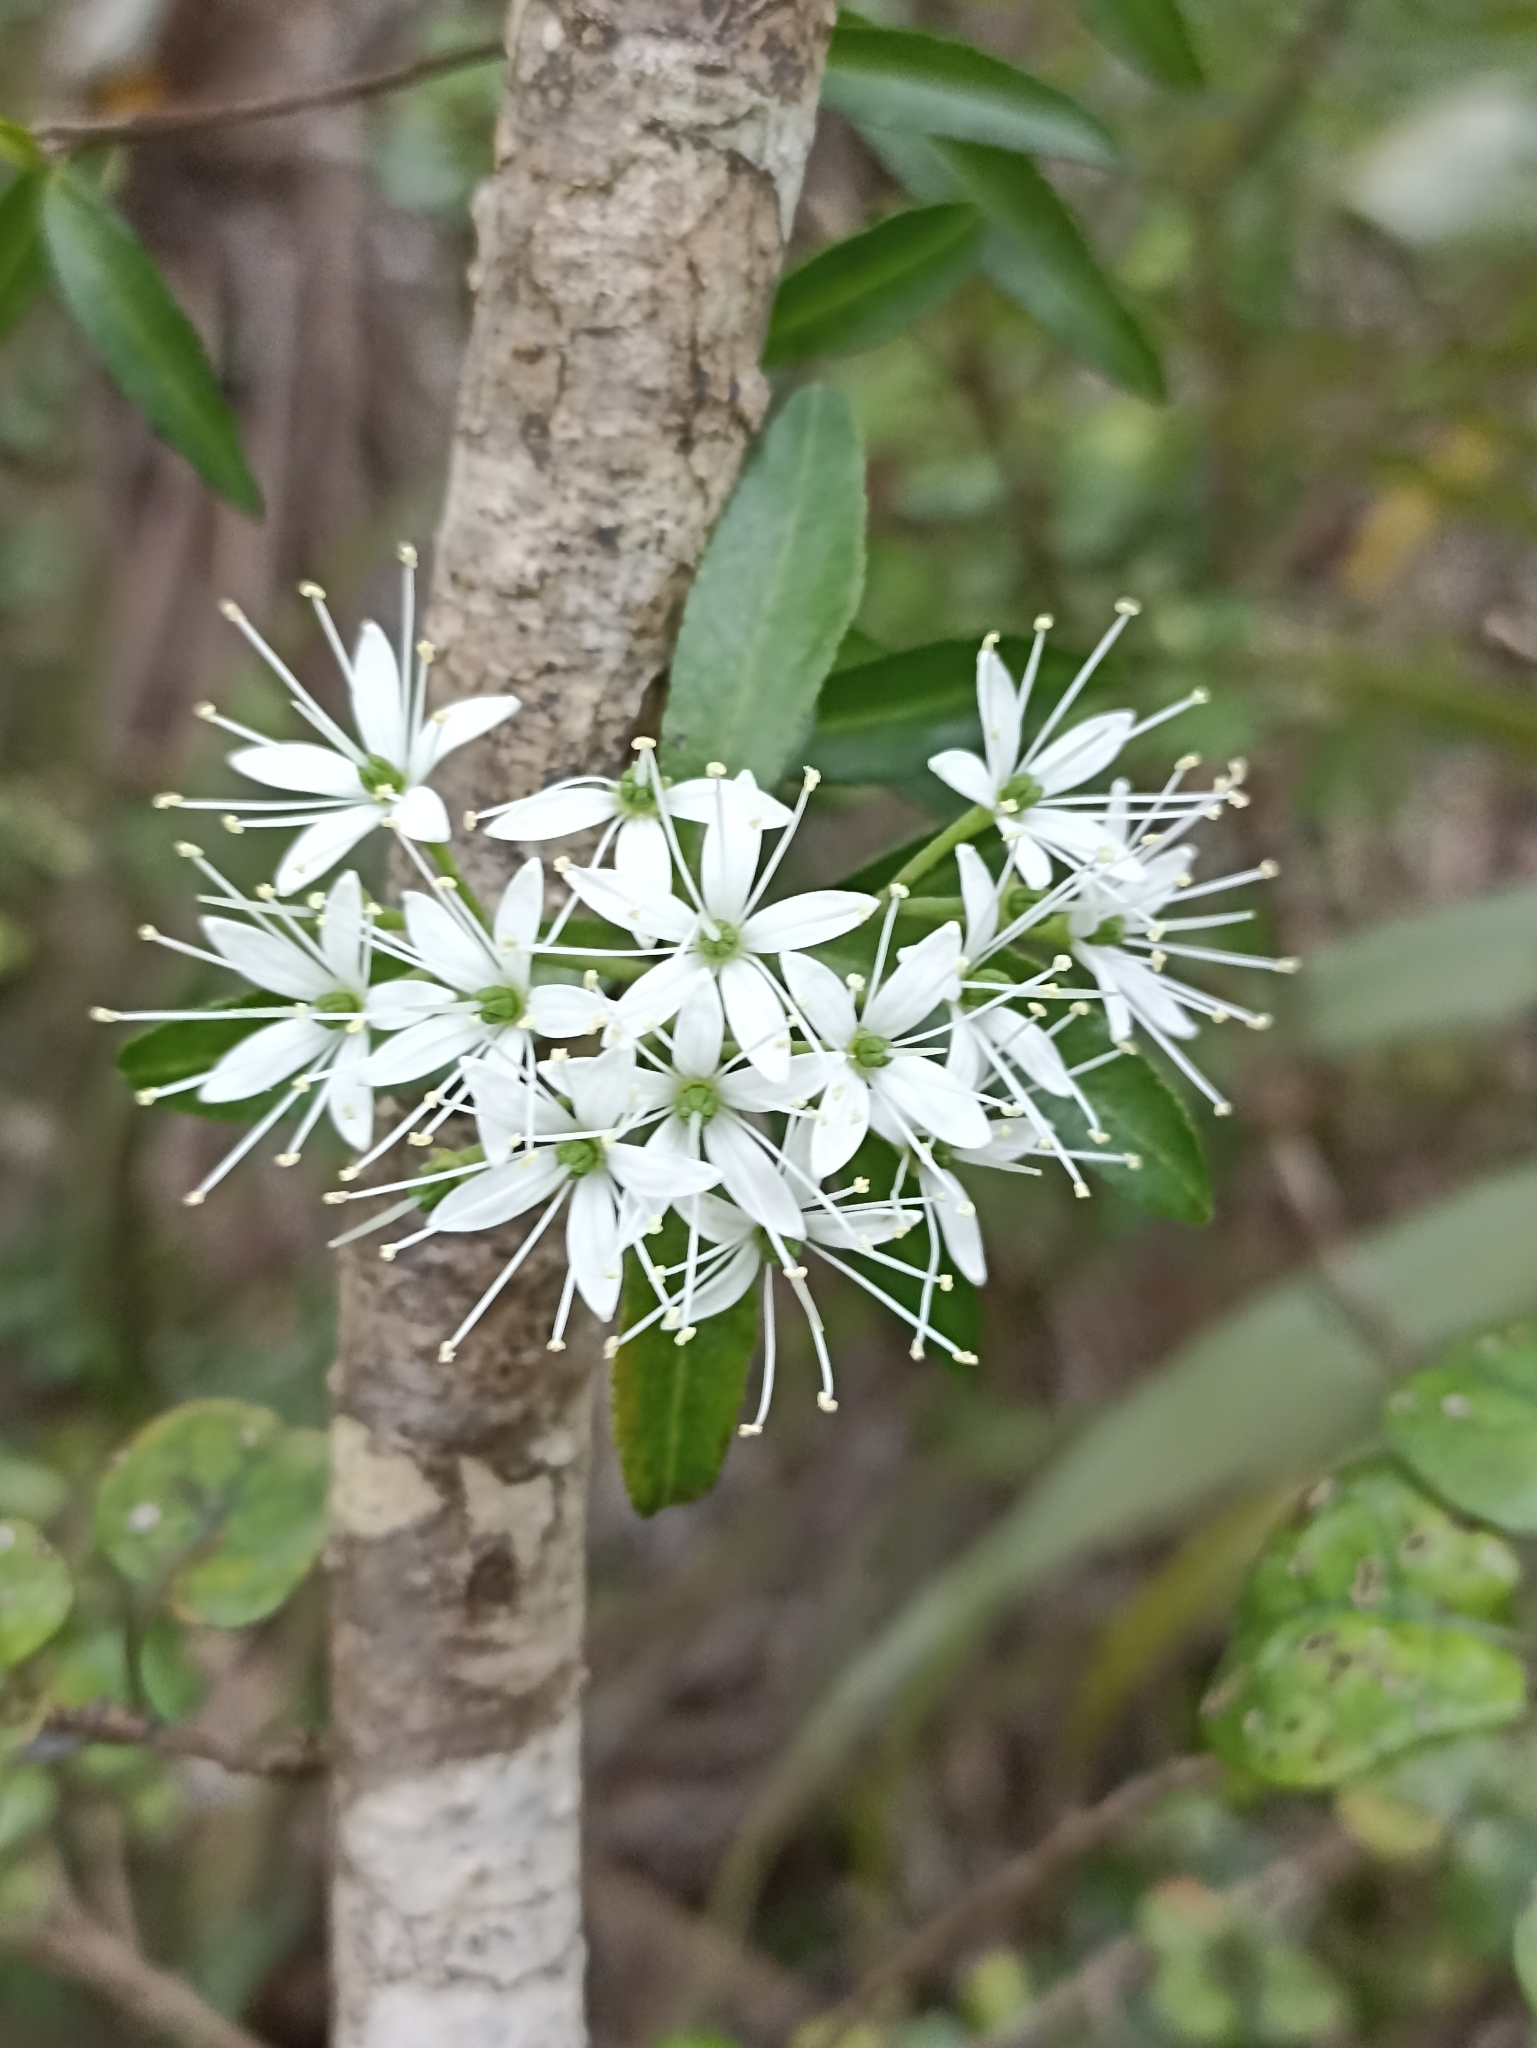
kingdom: Plantae
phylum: Tracheophyta
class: Magnoliopsida
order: Sapindales
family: Rutaceae
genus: Leionema
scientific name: Leionema nudum
